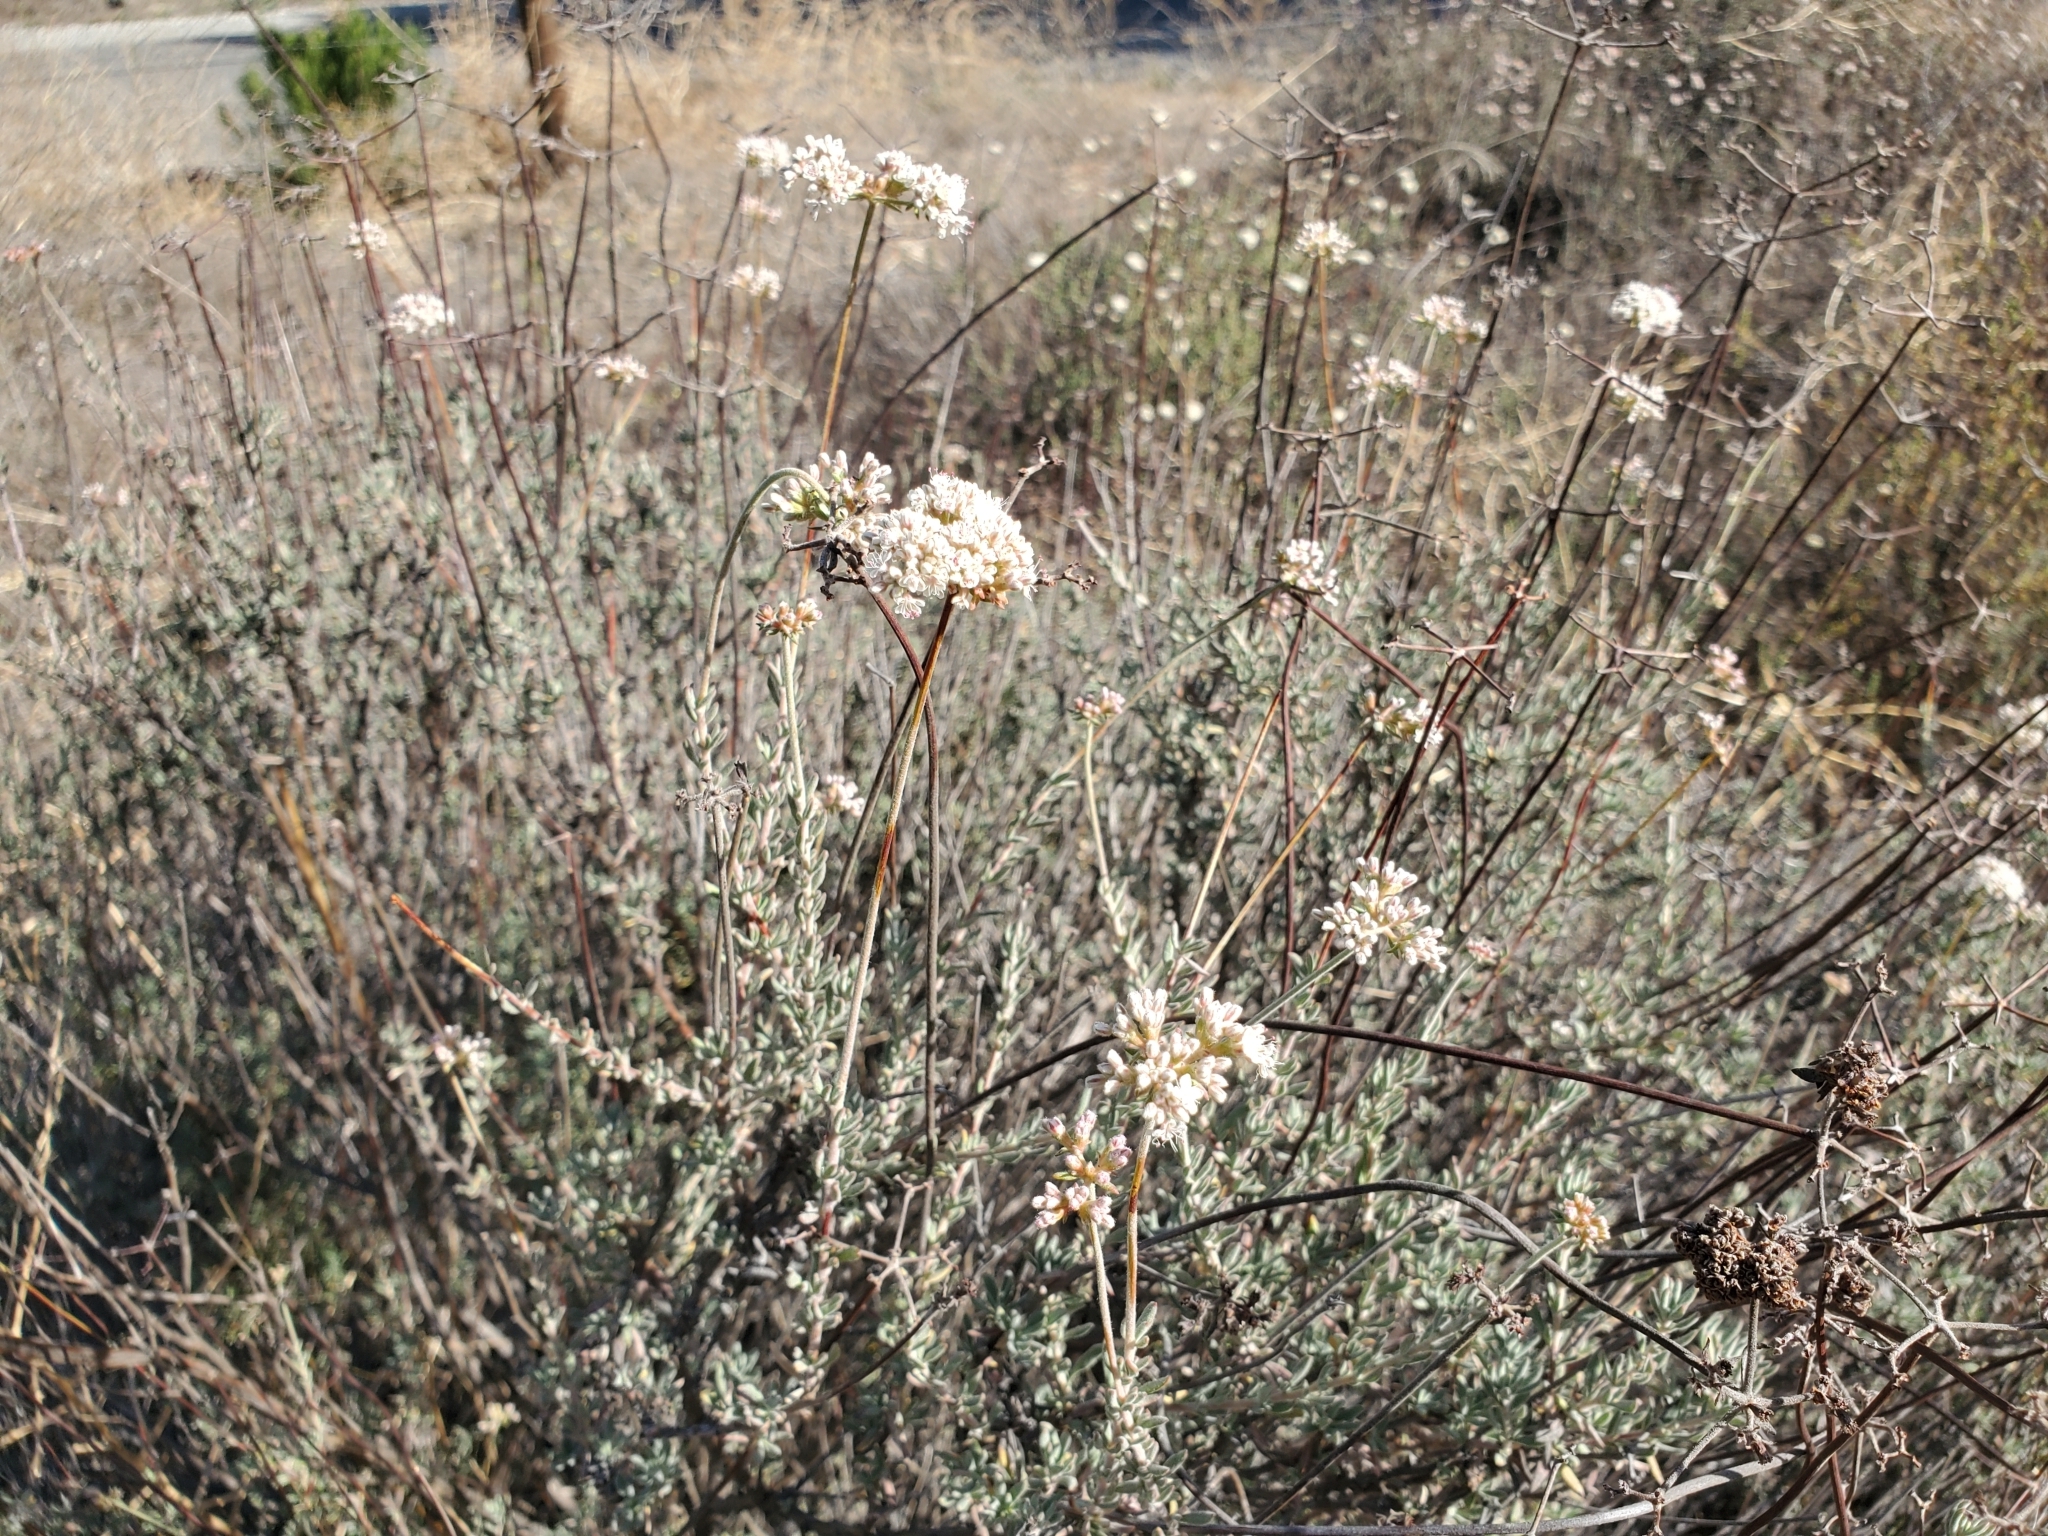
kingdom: Plantae
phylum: Tracheophyta
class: Magnoliopsida
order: Caryophyllales
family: Polygonaceae
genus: Eriogonum
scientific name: Eriogonum fasciculatum
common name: California wild buckwheat
